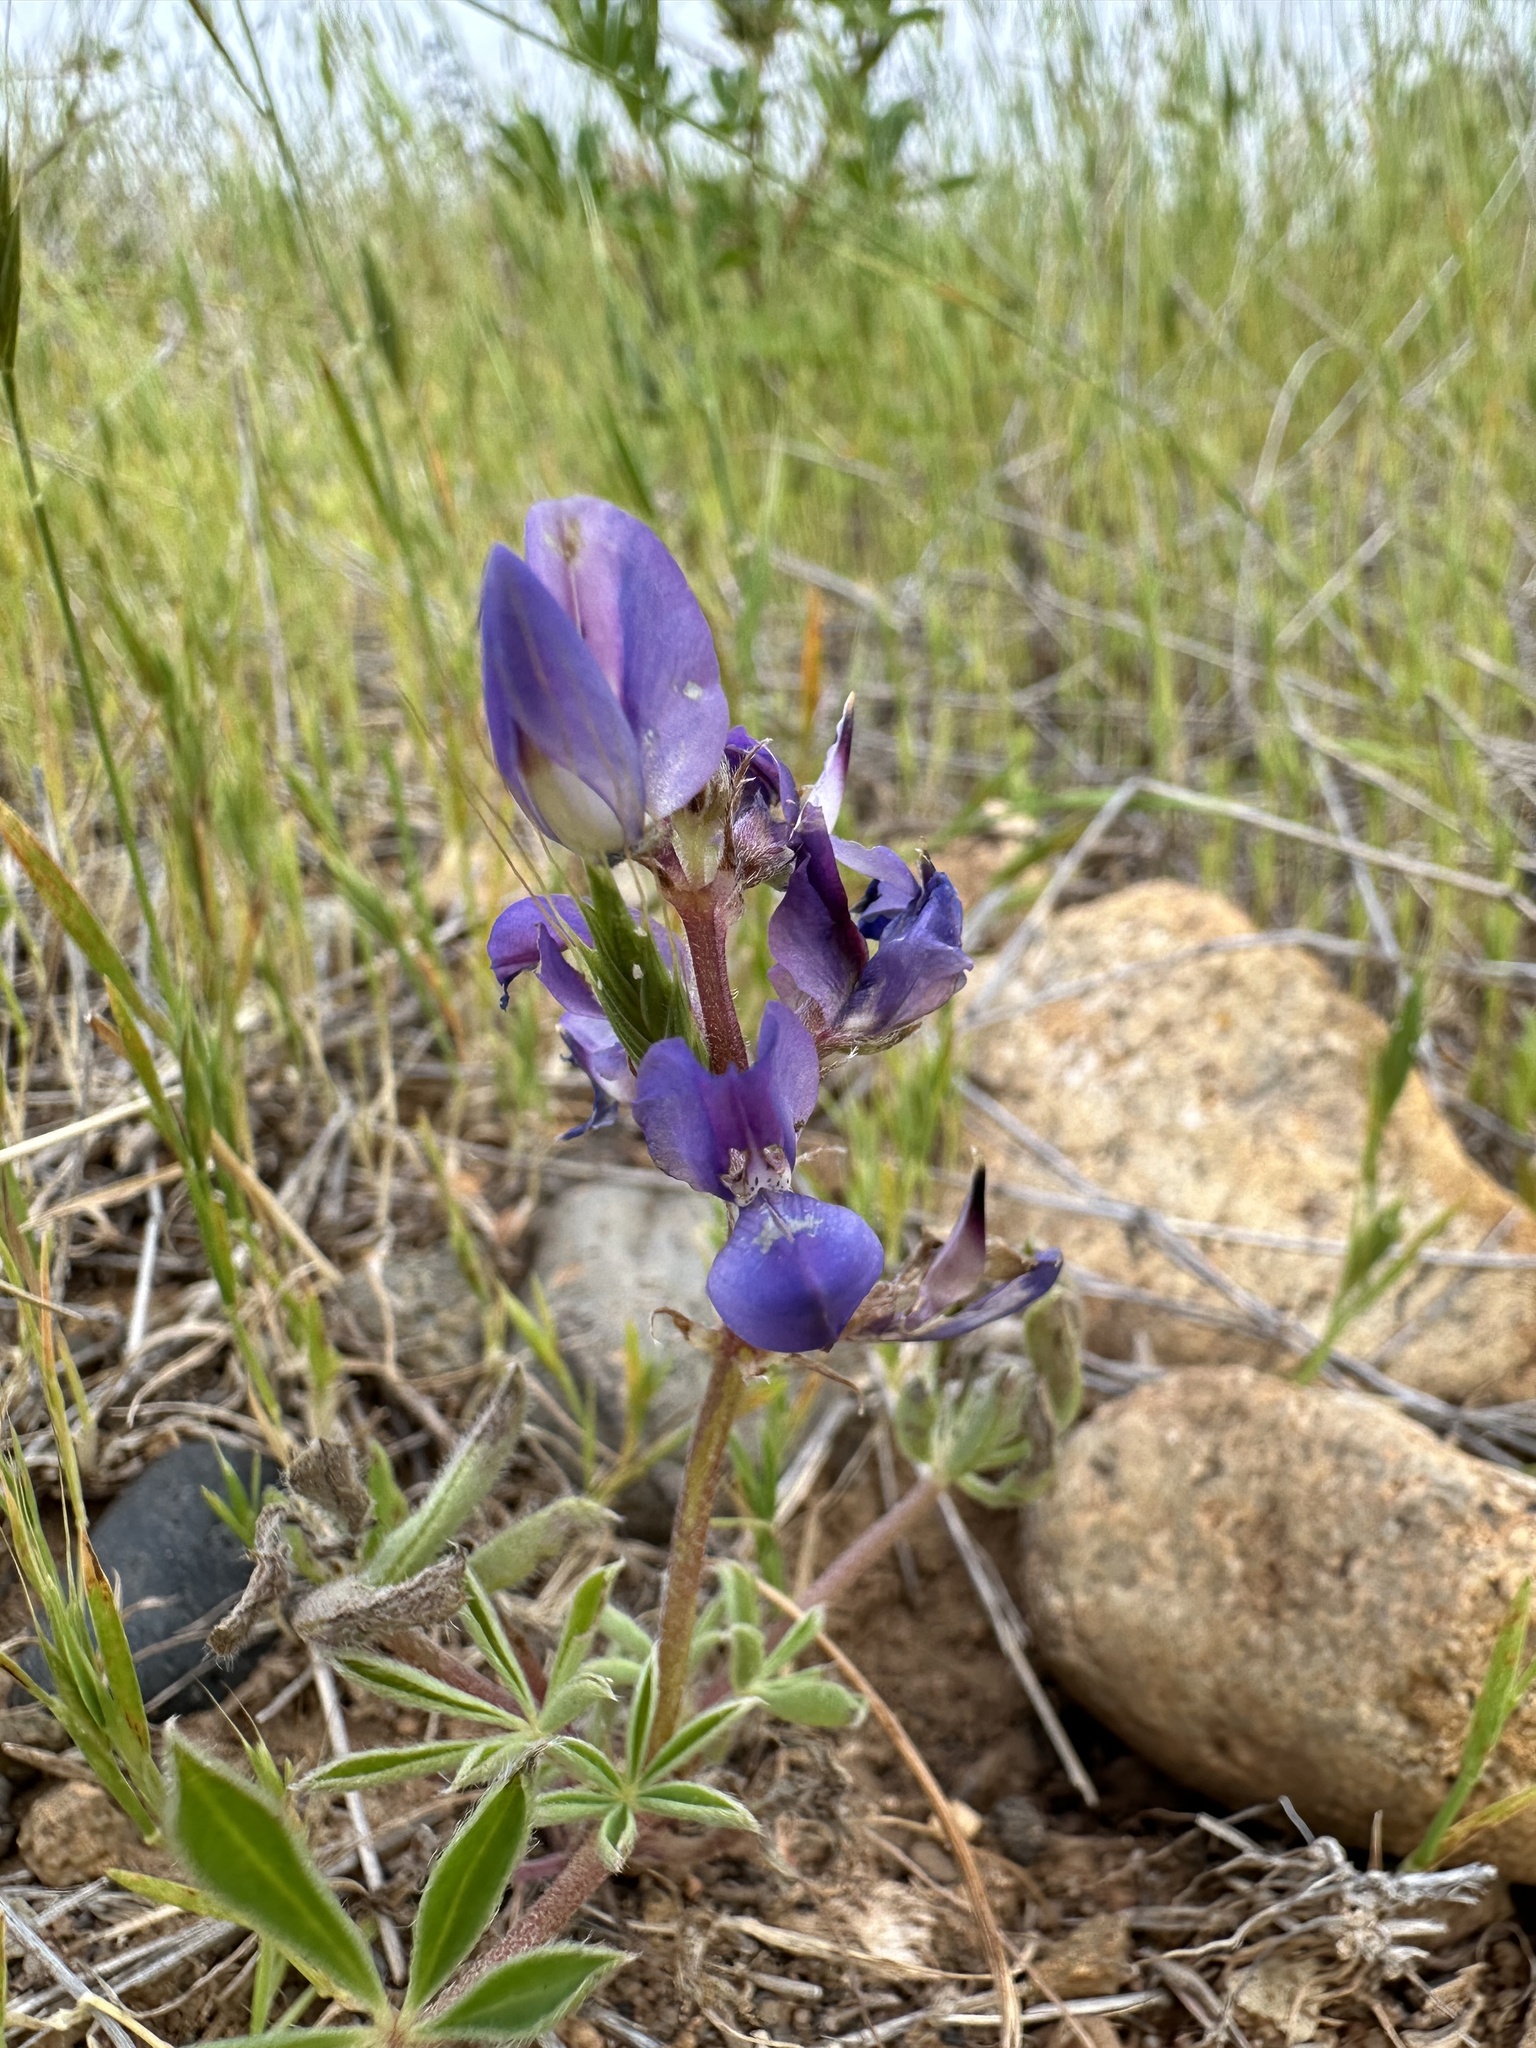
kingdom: Plantae
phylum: Tracheophyta
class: Magnoliopsida
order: Fabales
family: Fabaceae
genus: Lupinus
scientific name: Lupinus succulentus
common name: Arroyo lupine
